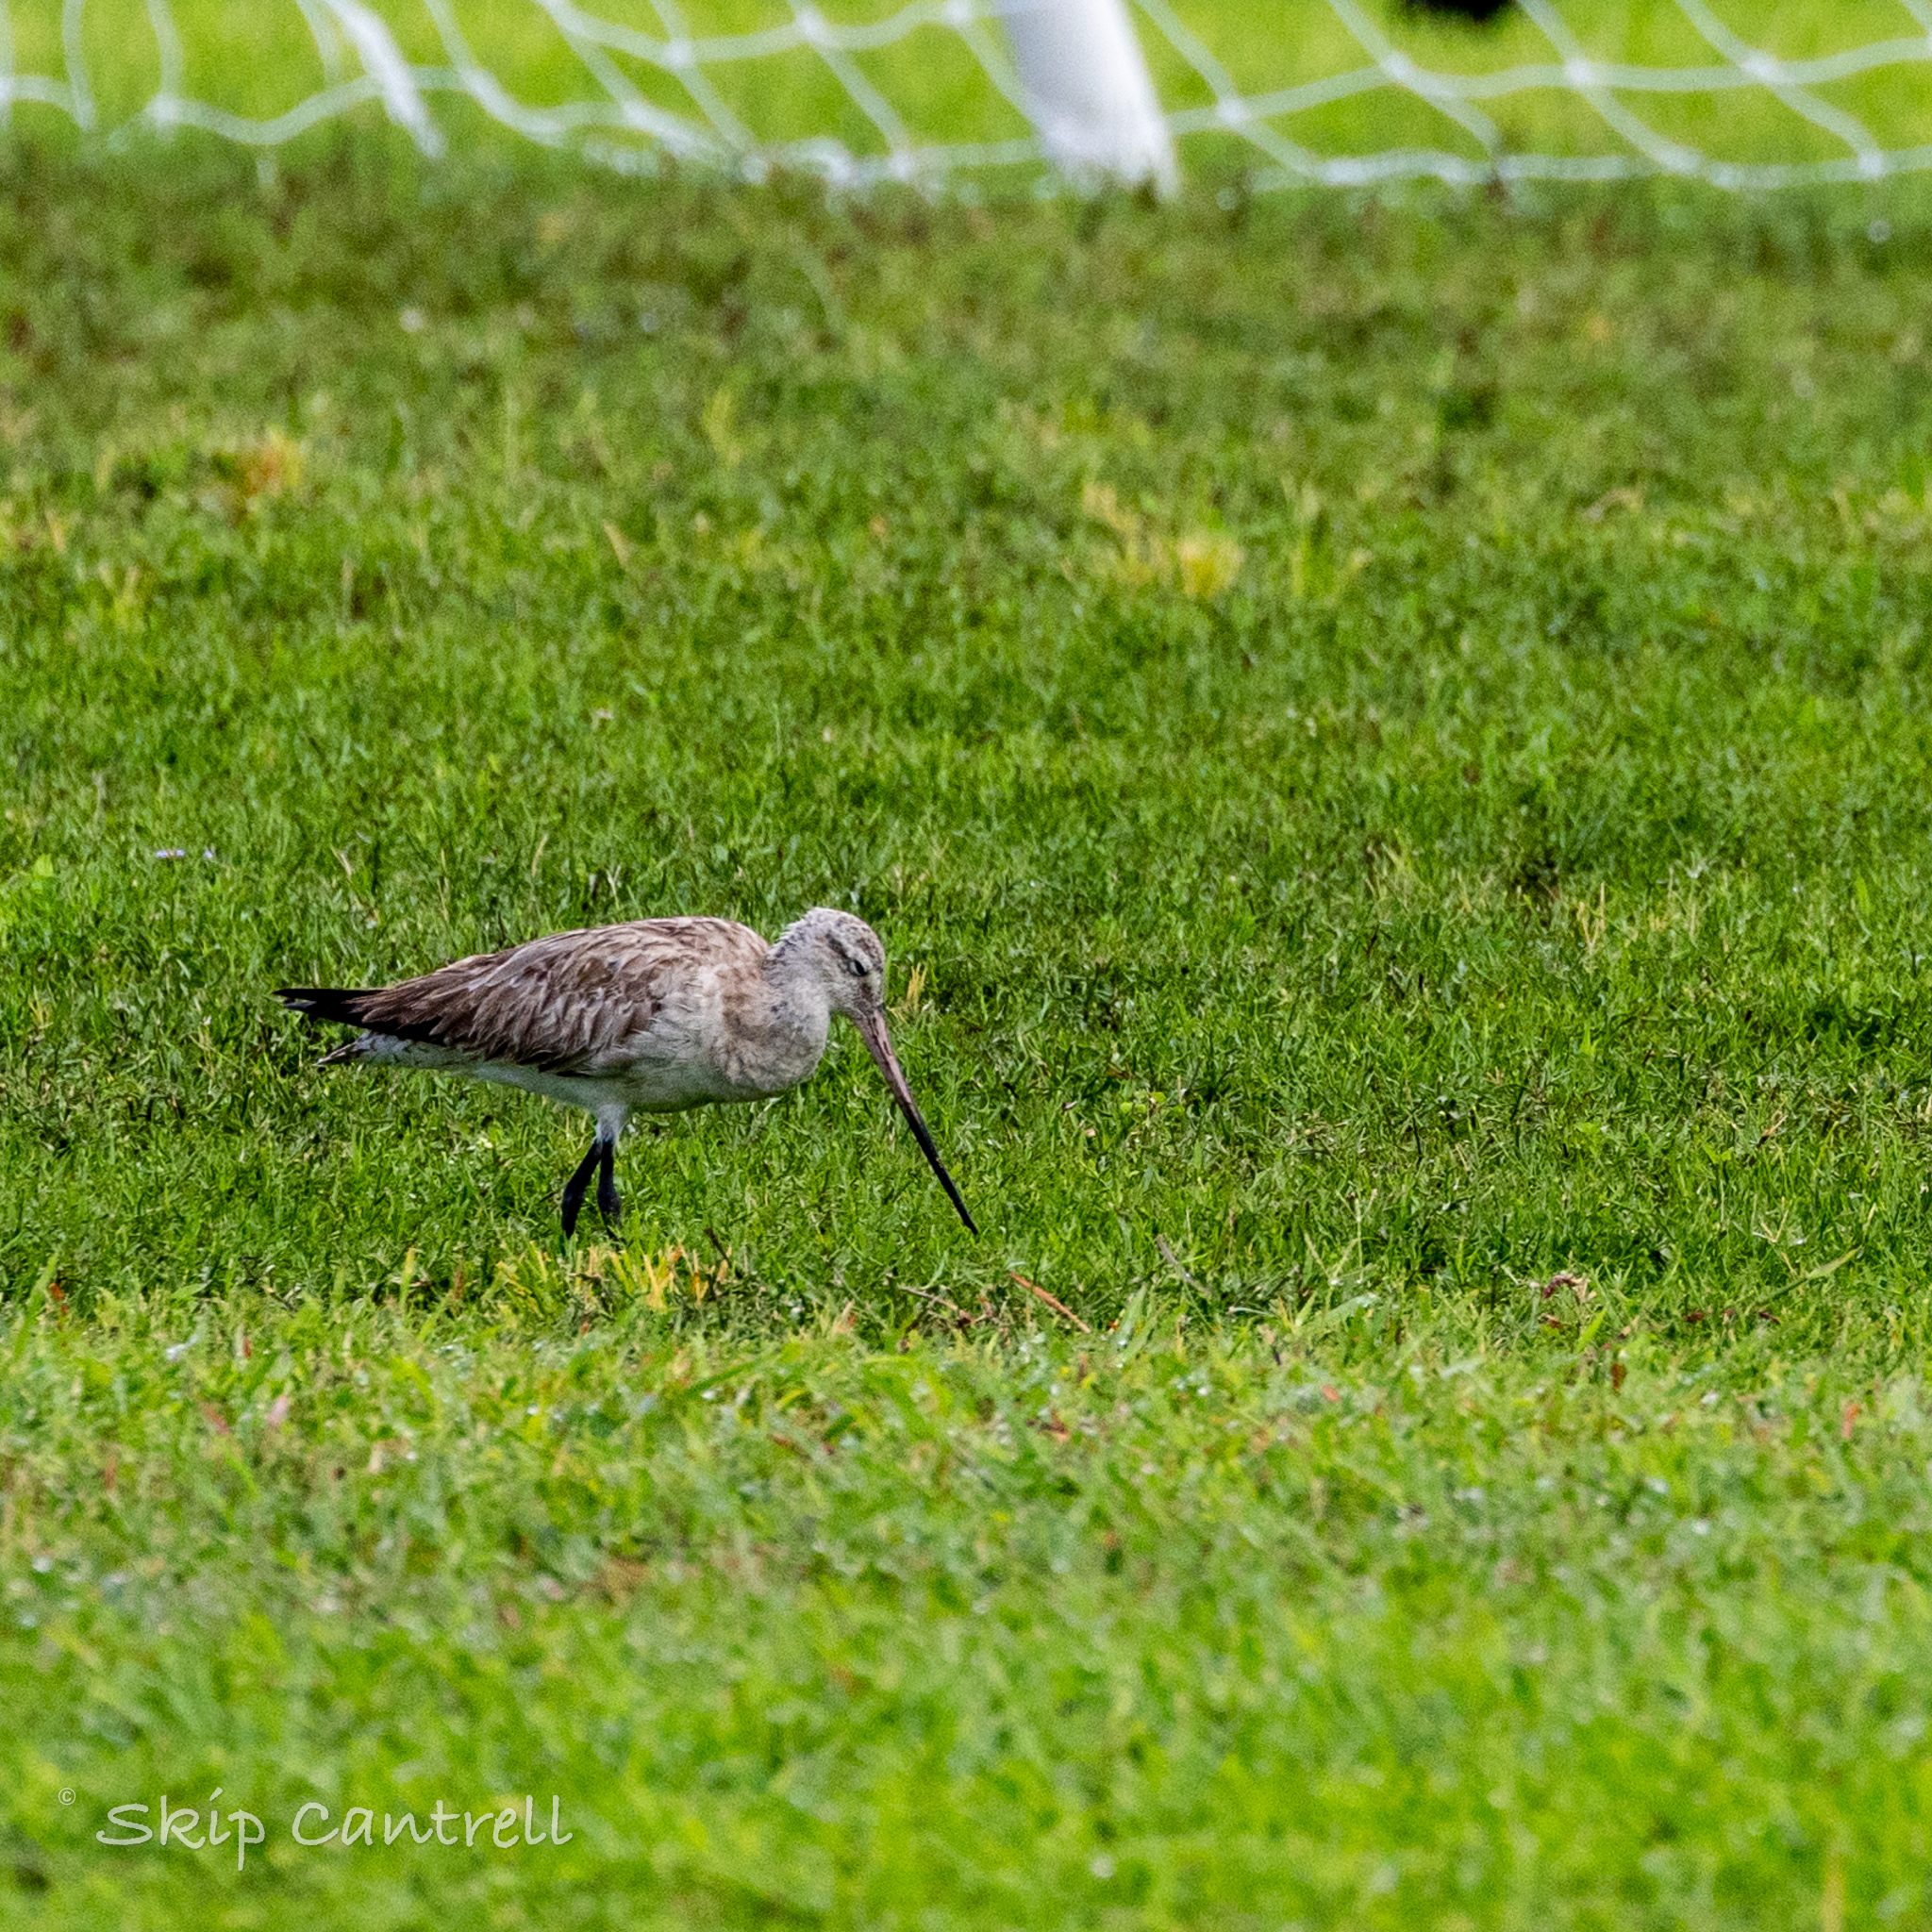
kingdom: Animalia
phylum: Chordata
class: Aves
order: Charadriiformes
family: Scolopacidae
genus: Limosa
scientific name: Limosa lapponica
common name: Bar-tailed godwit
